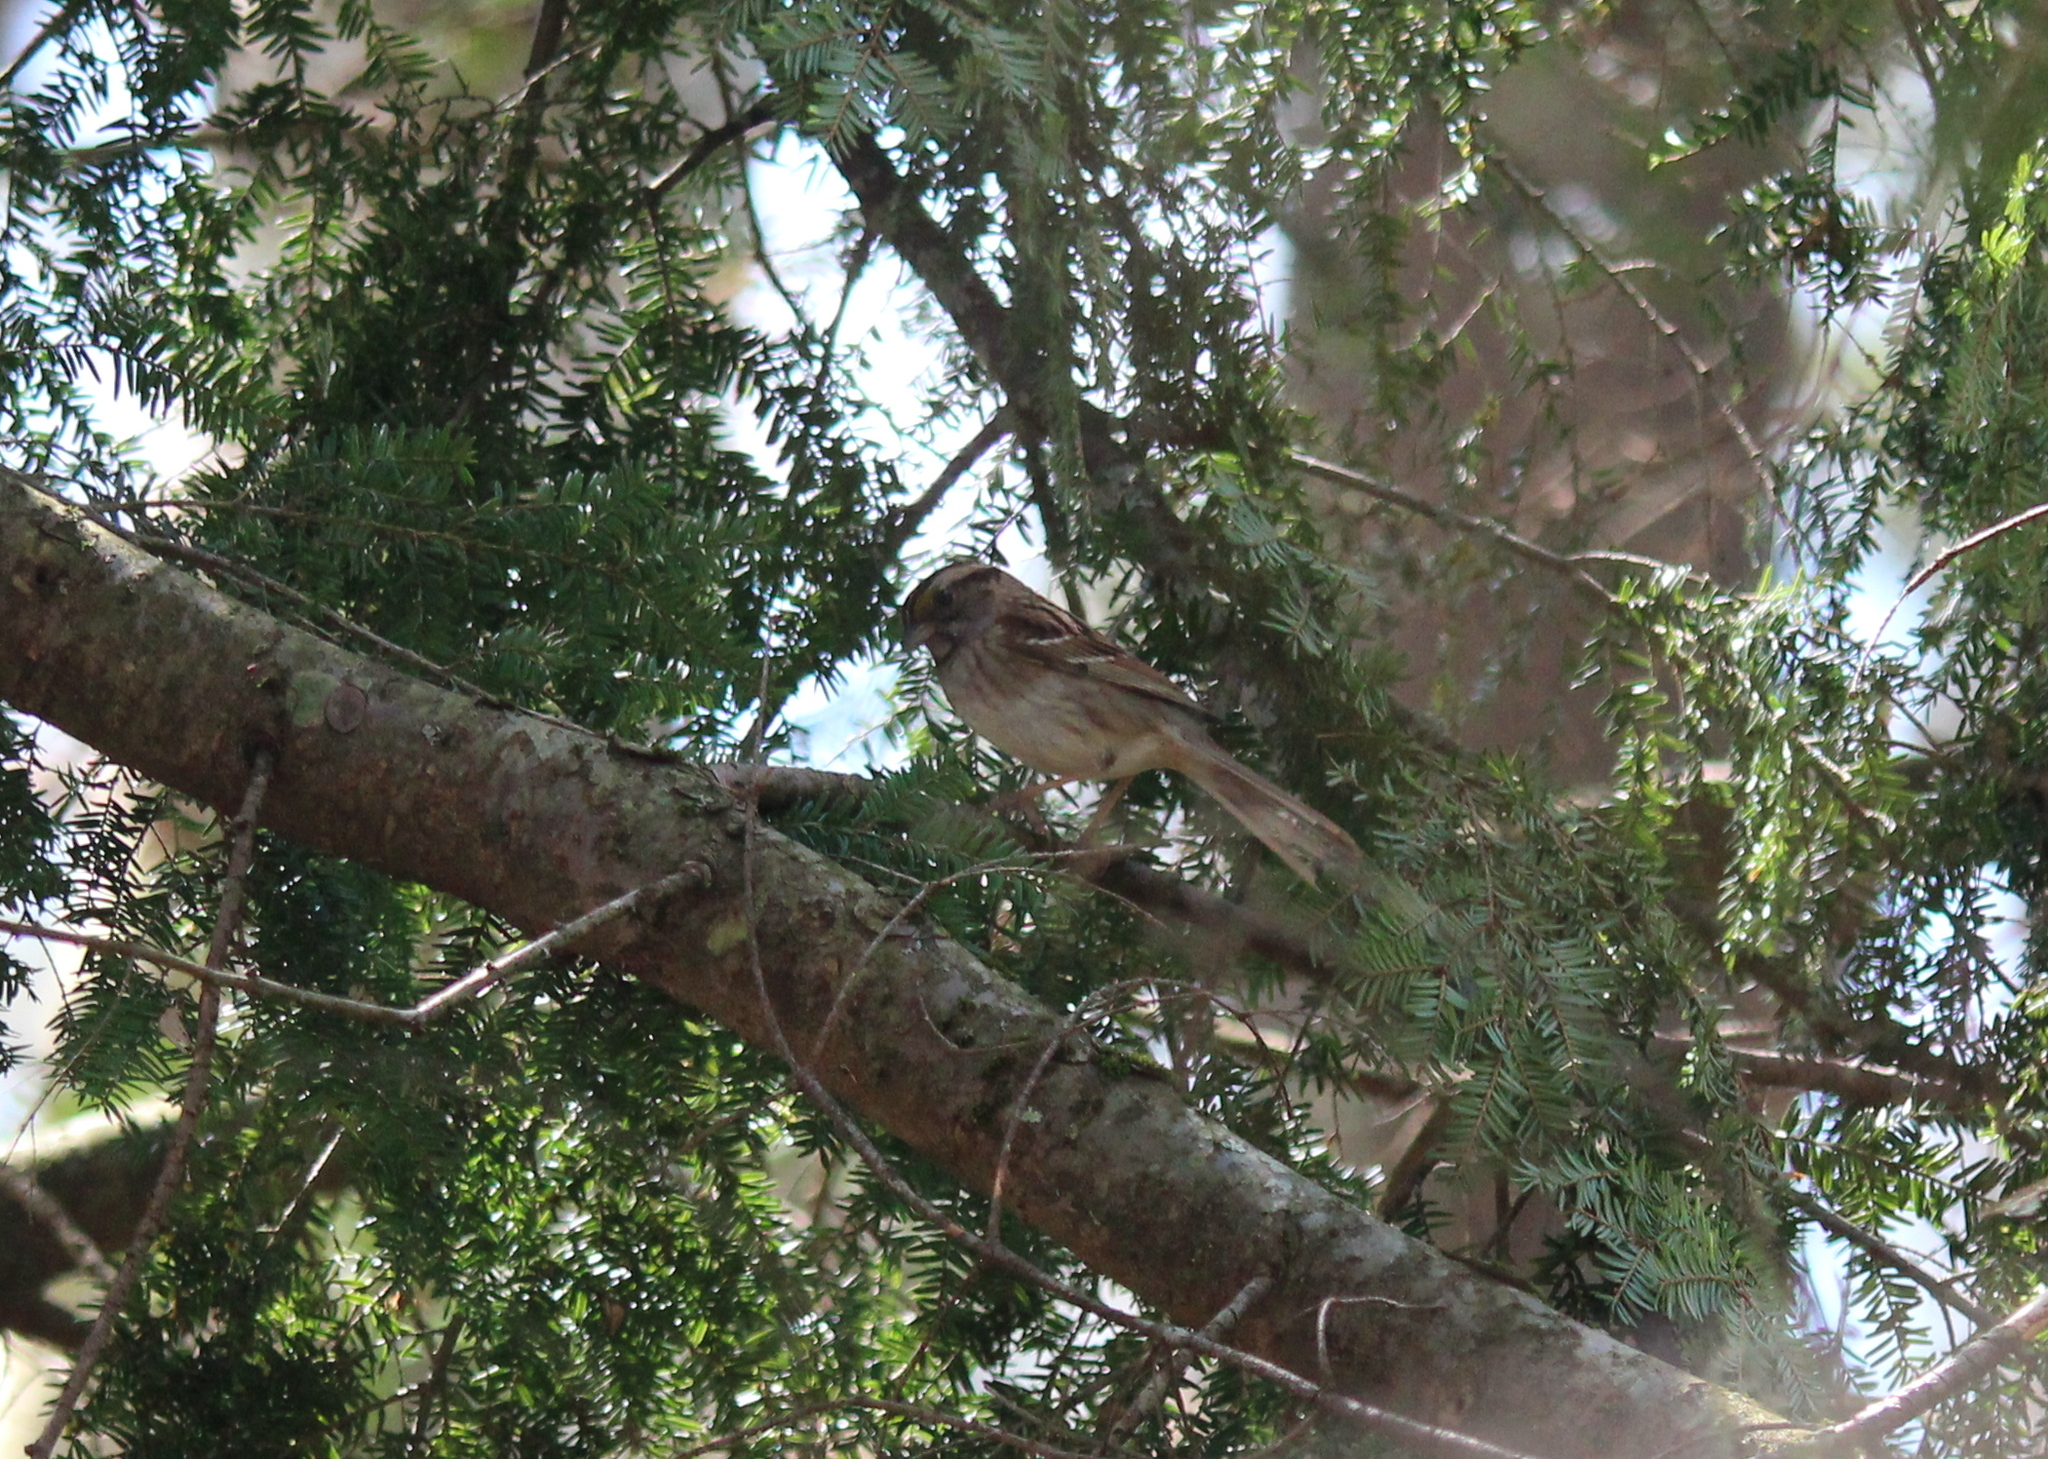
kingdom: Animalia
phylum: Chordata
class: Aves
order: Passeriformes
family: Passerellidae
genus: Zonotrichia
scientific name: Zonotrichia albicollis
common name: White-throated sparrow
